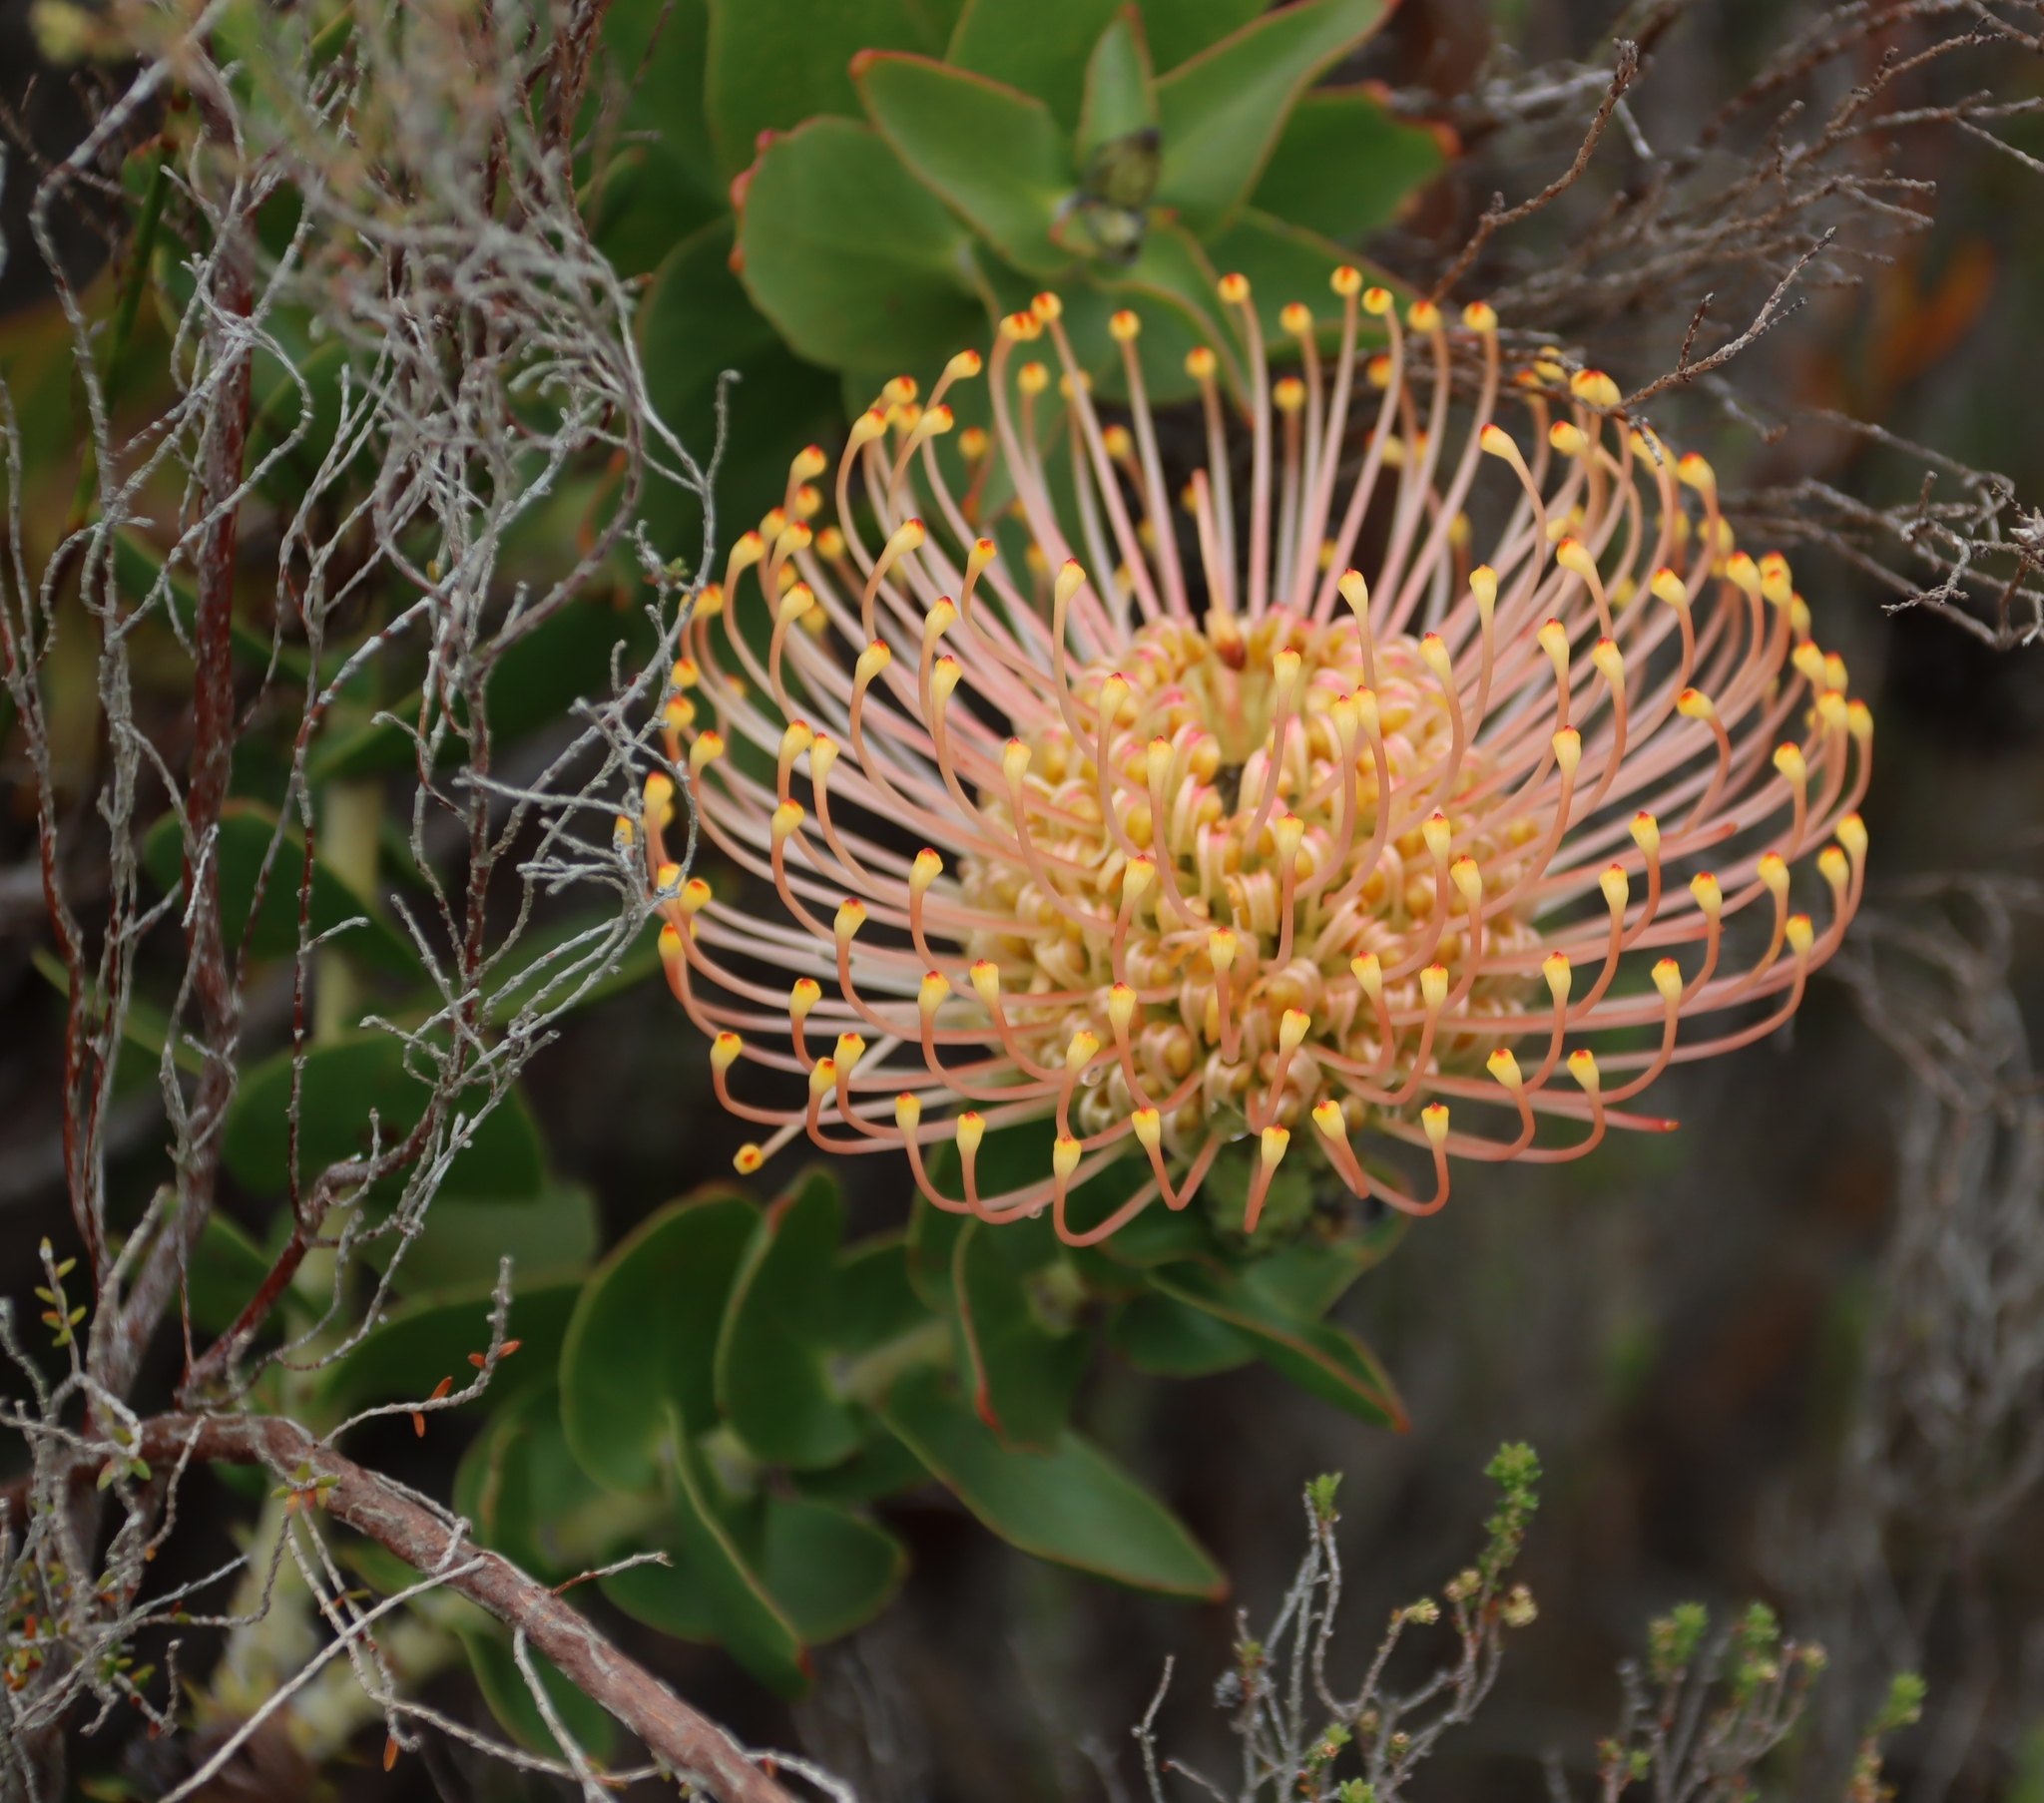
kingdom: Plantae
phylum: Tracheophyta
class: Magnoliopsida
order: Proteales
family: Proteaceae
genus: Leucospermum
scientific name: Leucospermum cordifolium
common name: Red pincushion-protea
